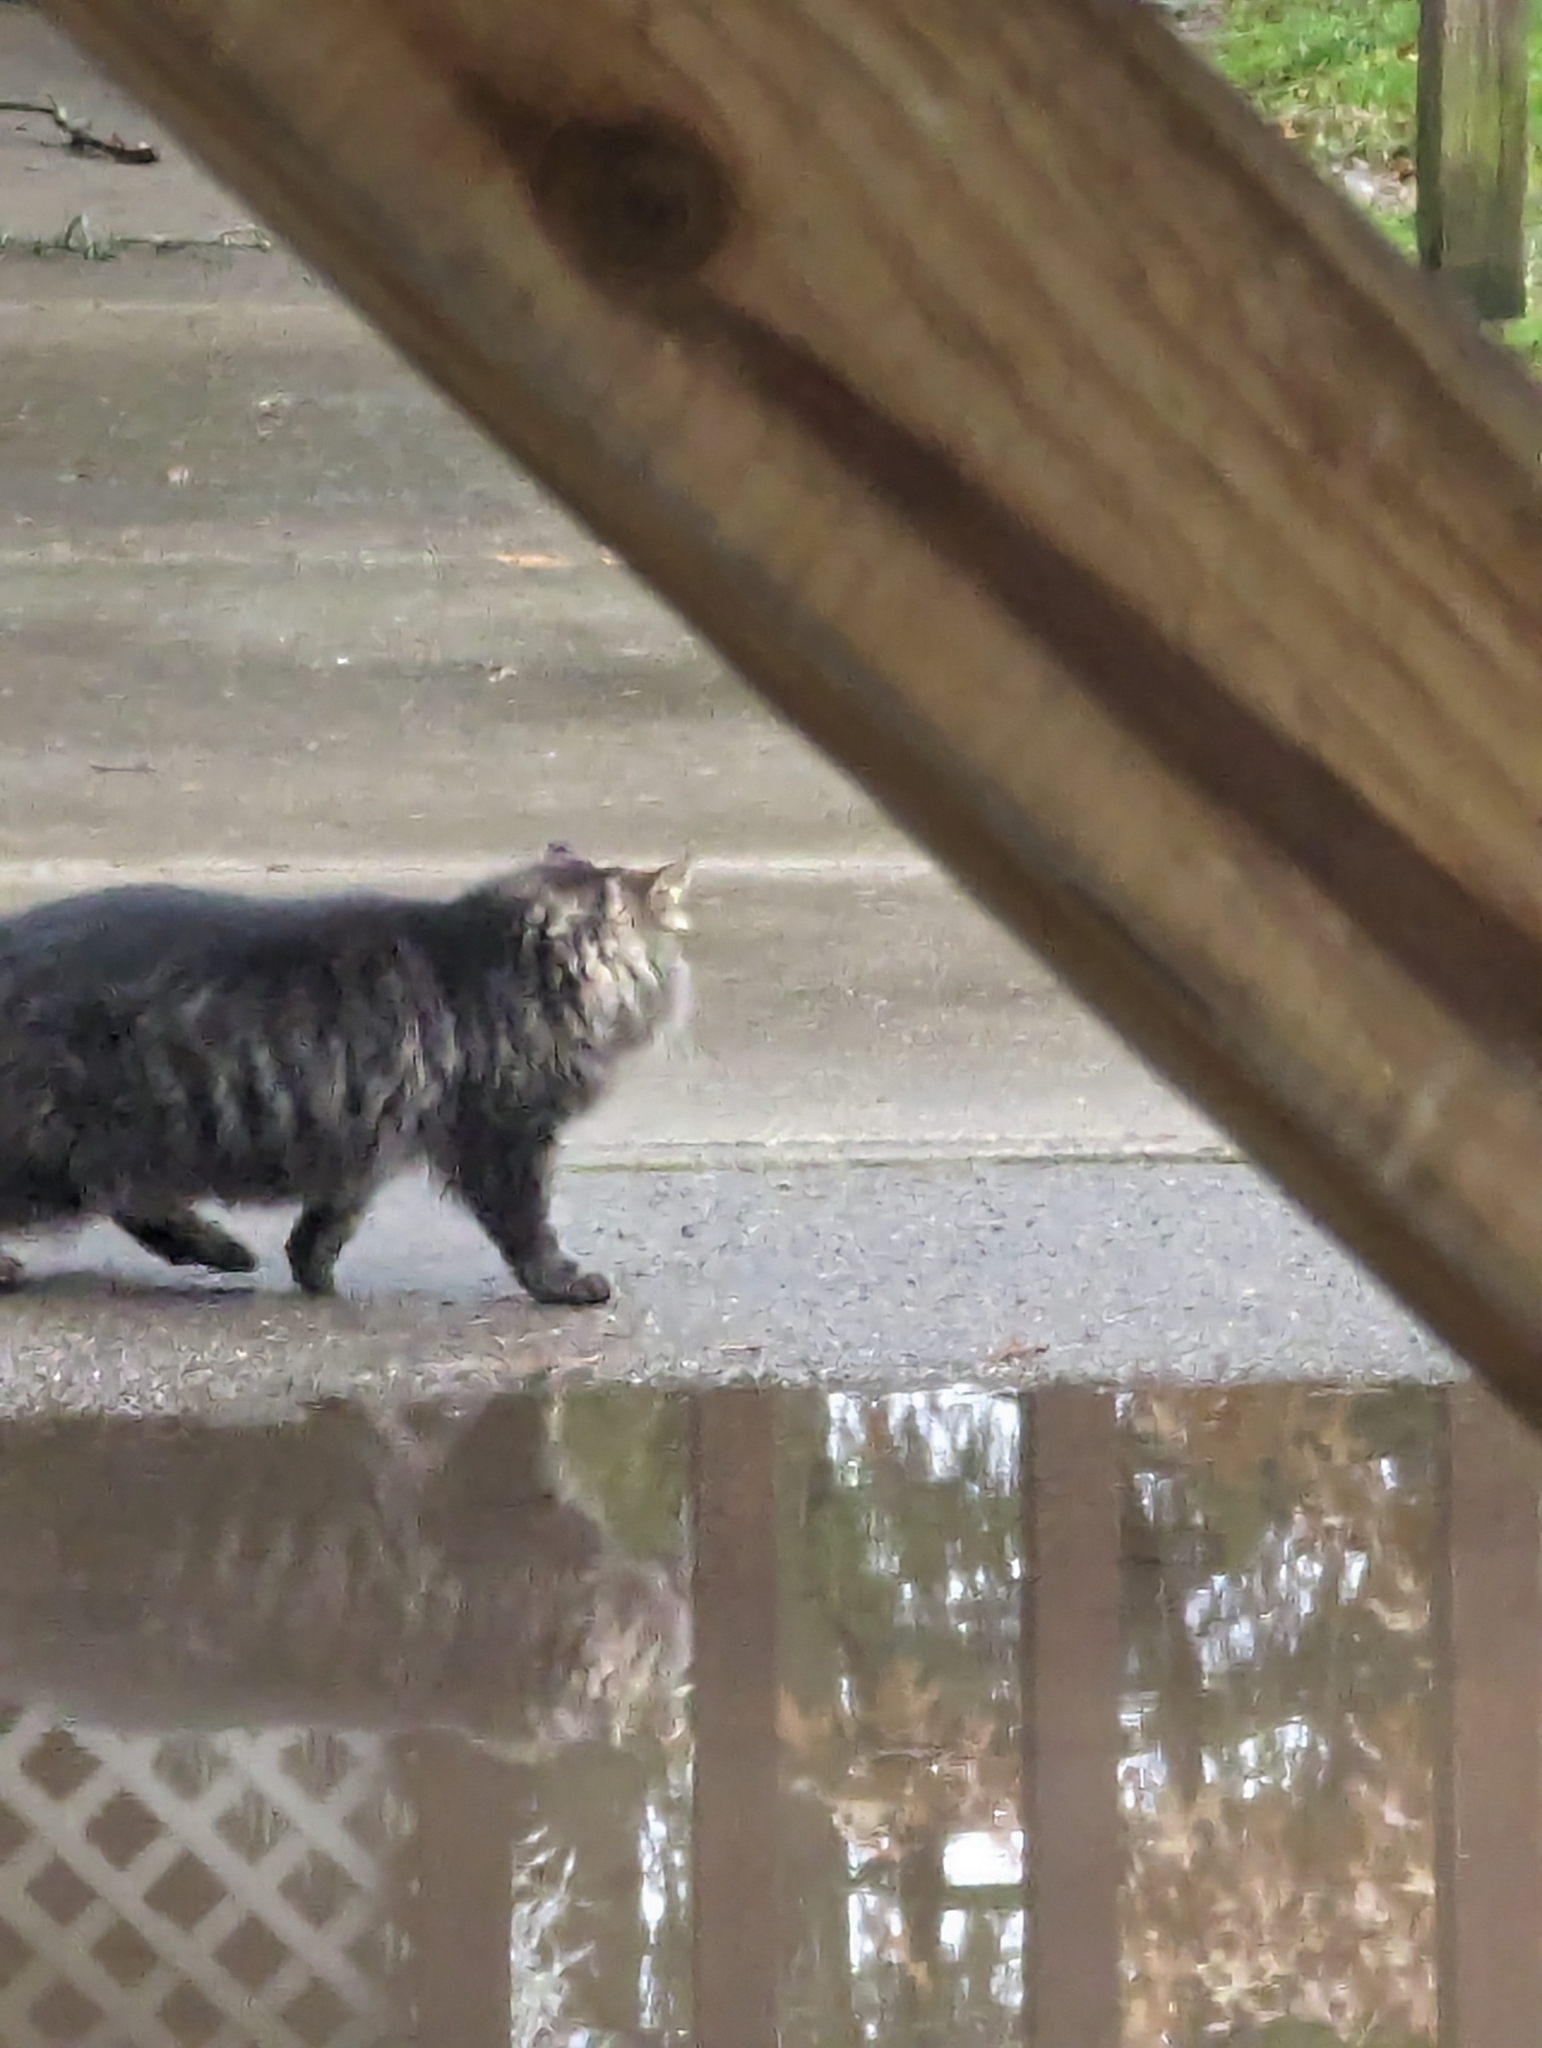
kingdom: Animalia
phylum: Chordata
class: Mammalia
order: Carnivora
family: Felidae
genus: Felis
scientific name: Felis catus
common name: Domestic cat
